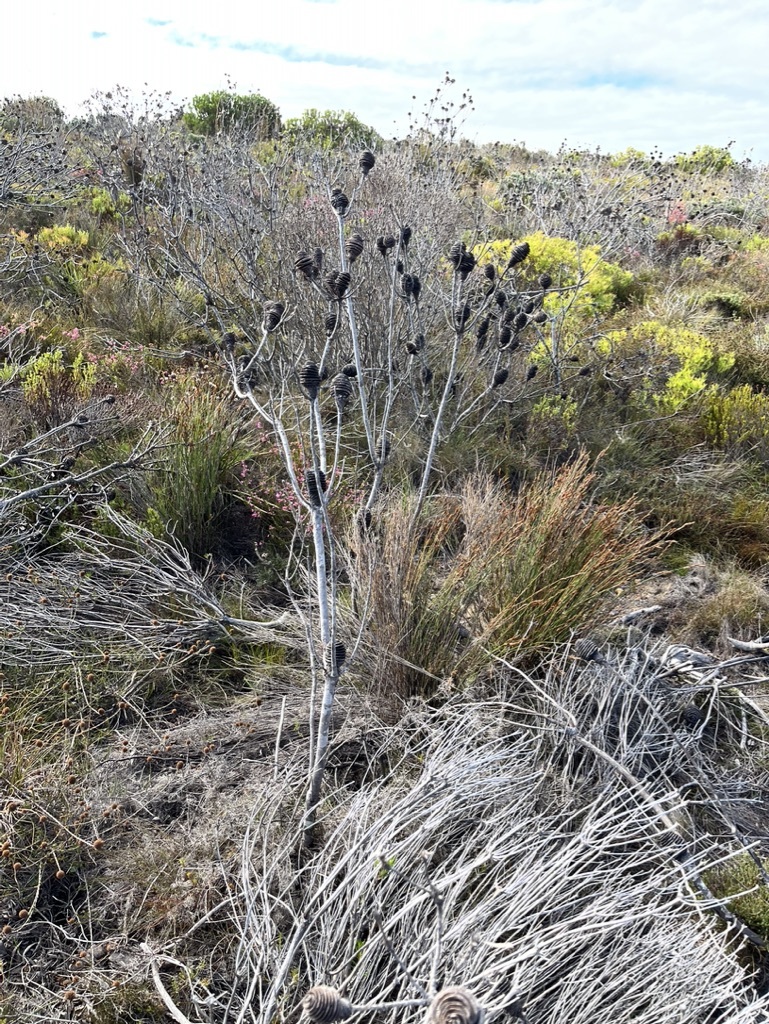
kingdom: Plantae
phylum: Tracheophyta
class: Magnoliopsida
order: Proteales
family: Proteaceae
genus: Leucadendron
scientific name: Leucadendron platyspermum
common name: Plate-seed conebush
